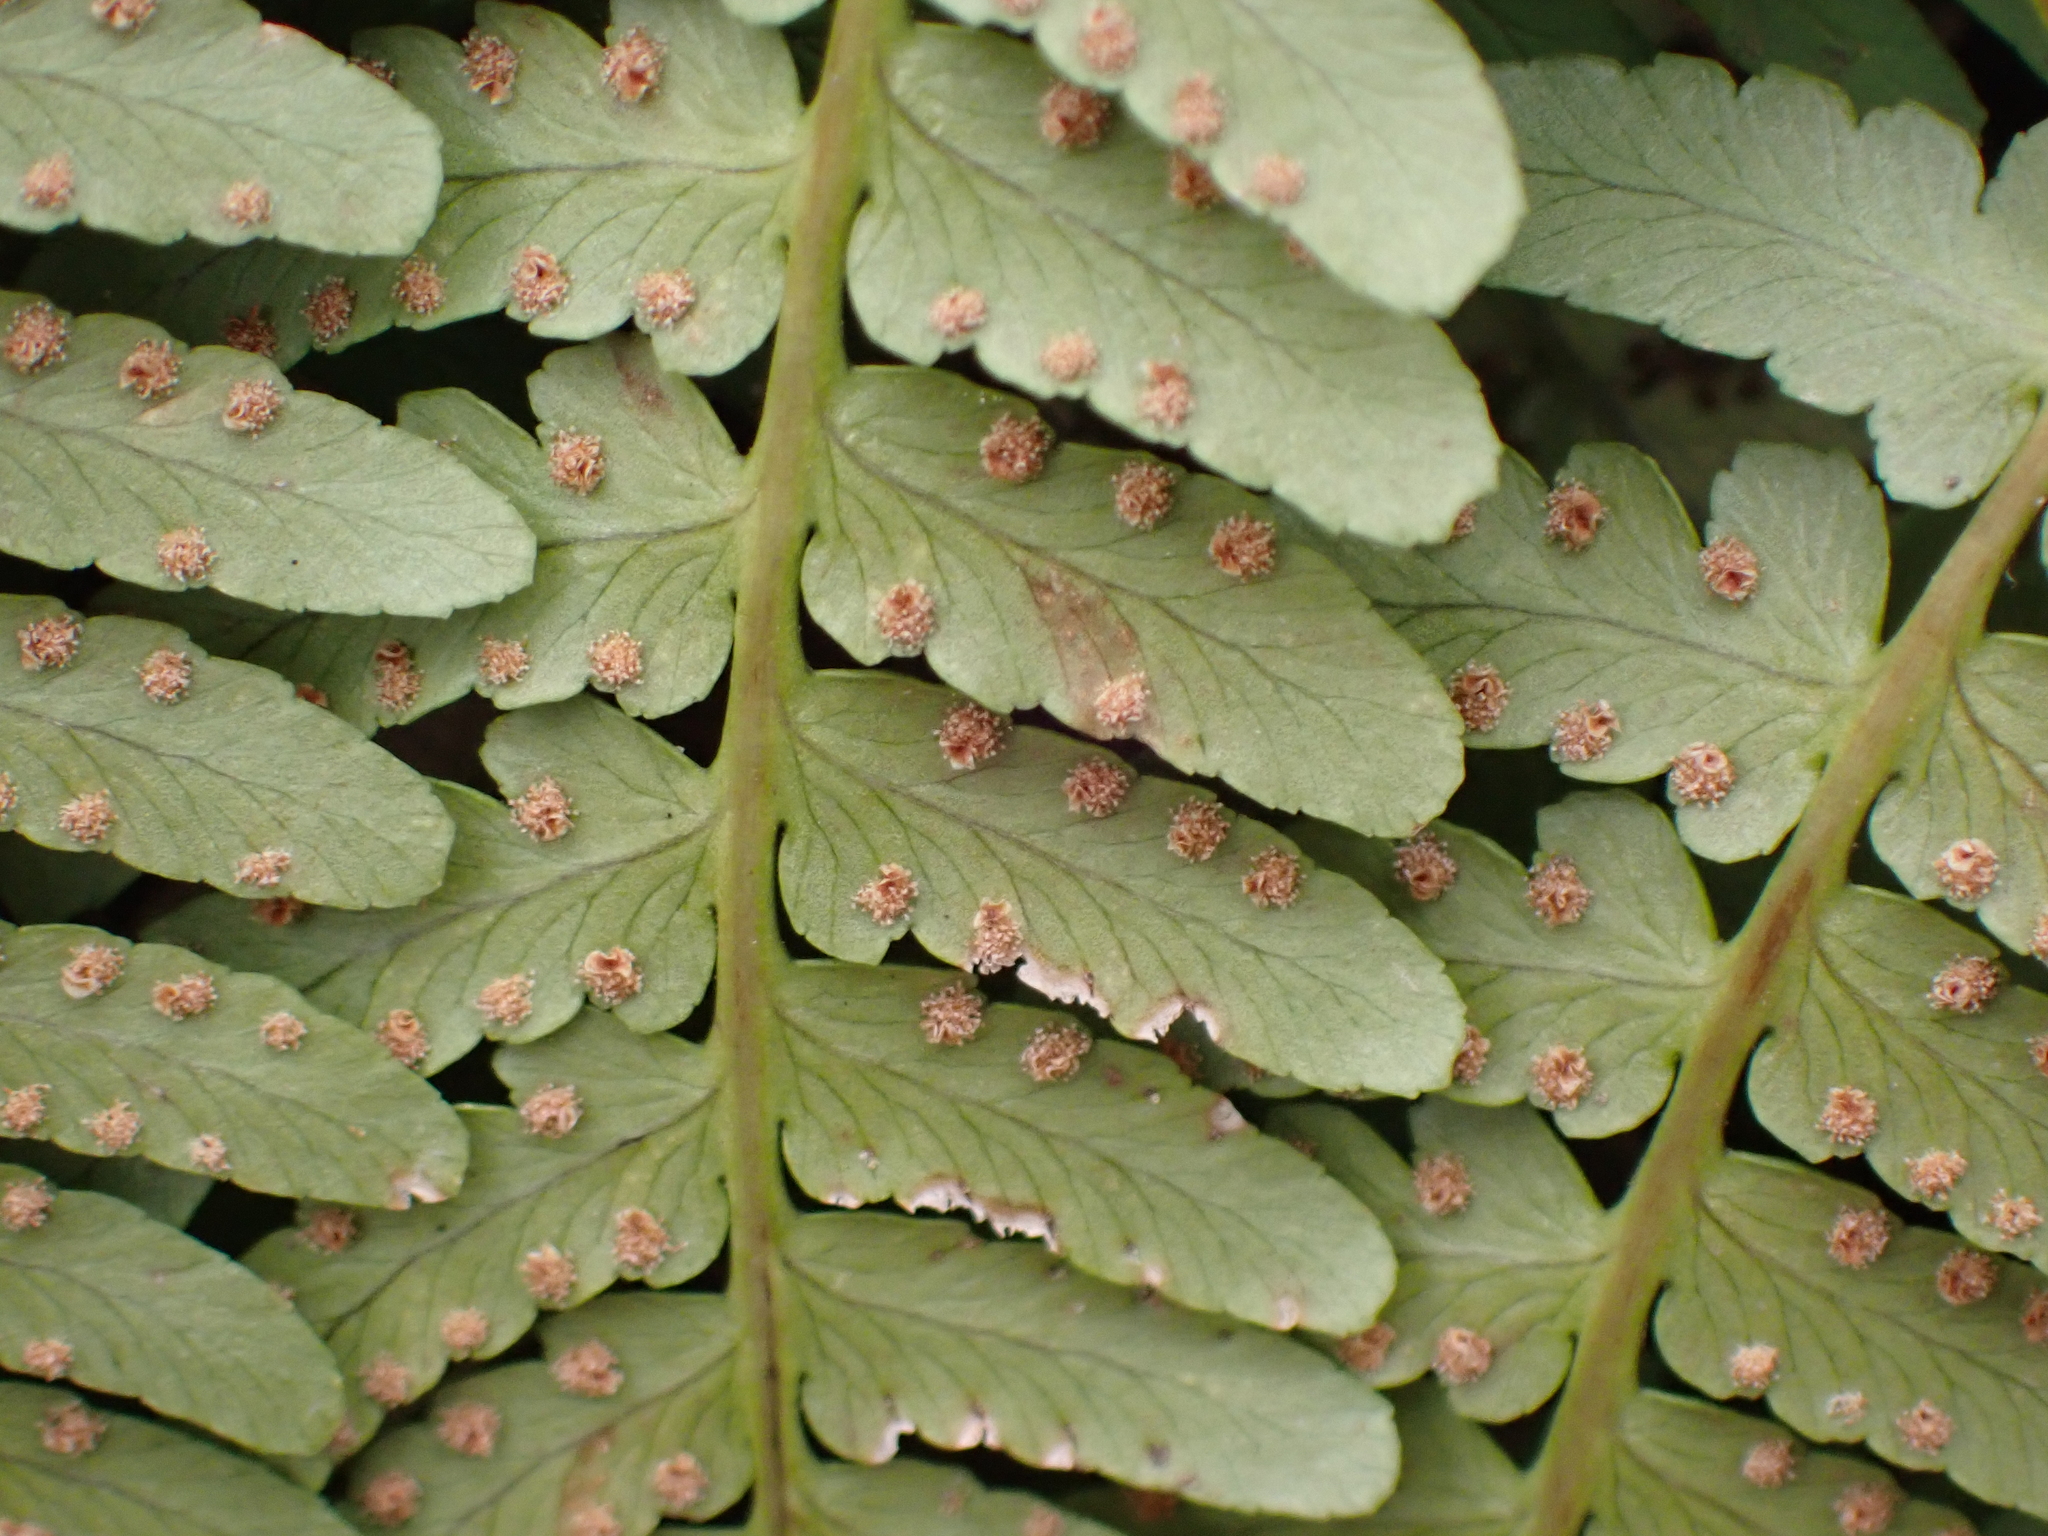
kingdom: Plantae
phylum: Tracheophyta
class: Polypodiopsida
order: Polypodiales
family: Dryopteridaceae
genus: Dryopteris
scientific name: Dryopteris marginalis
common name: Marginal wood fern
